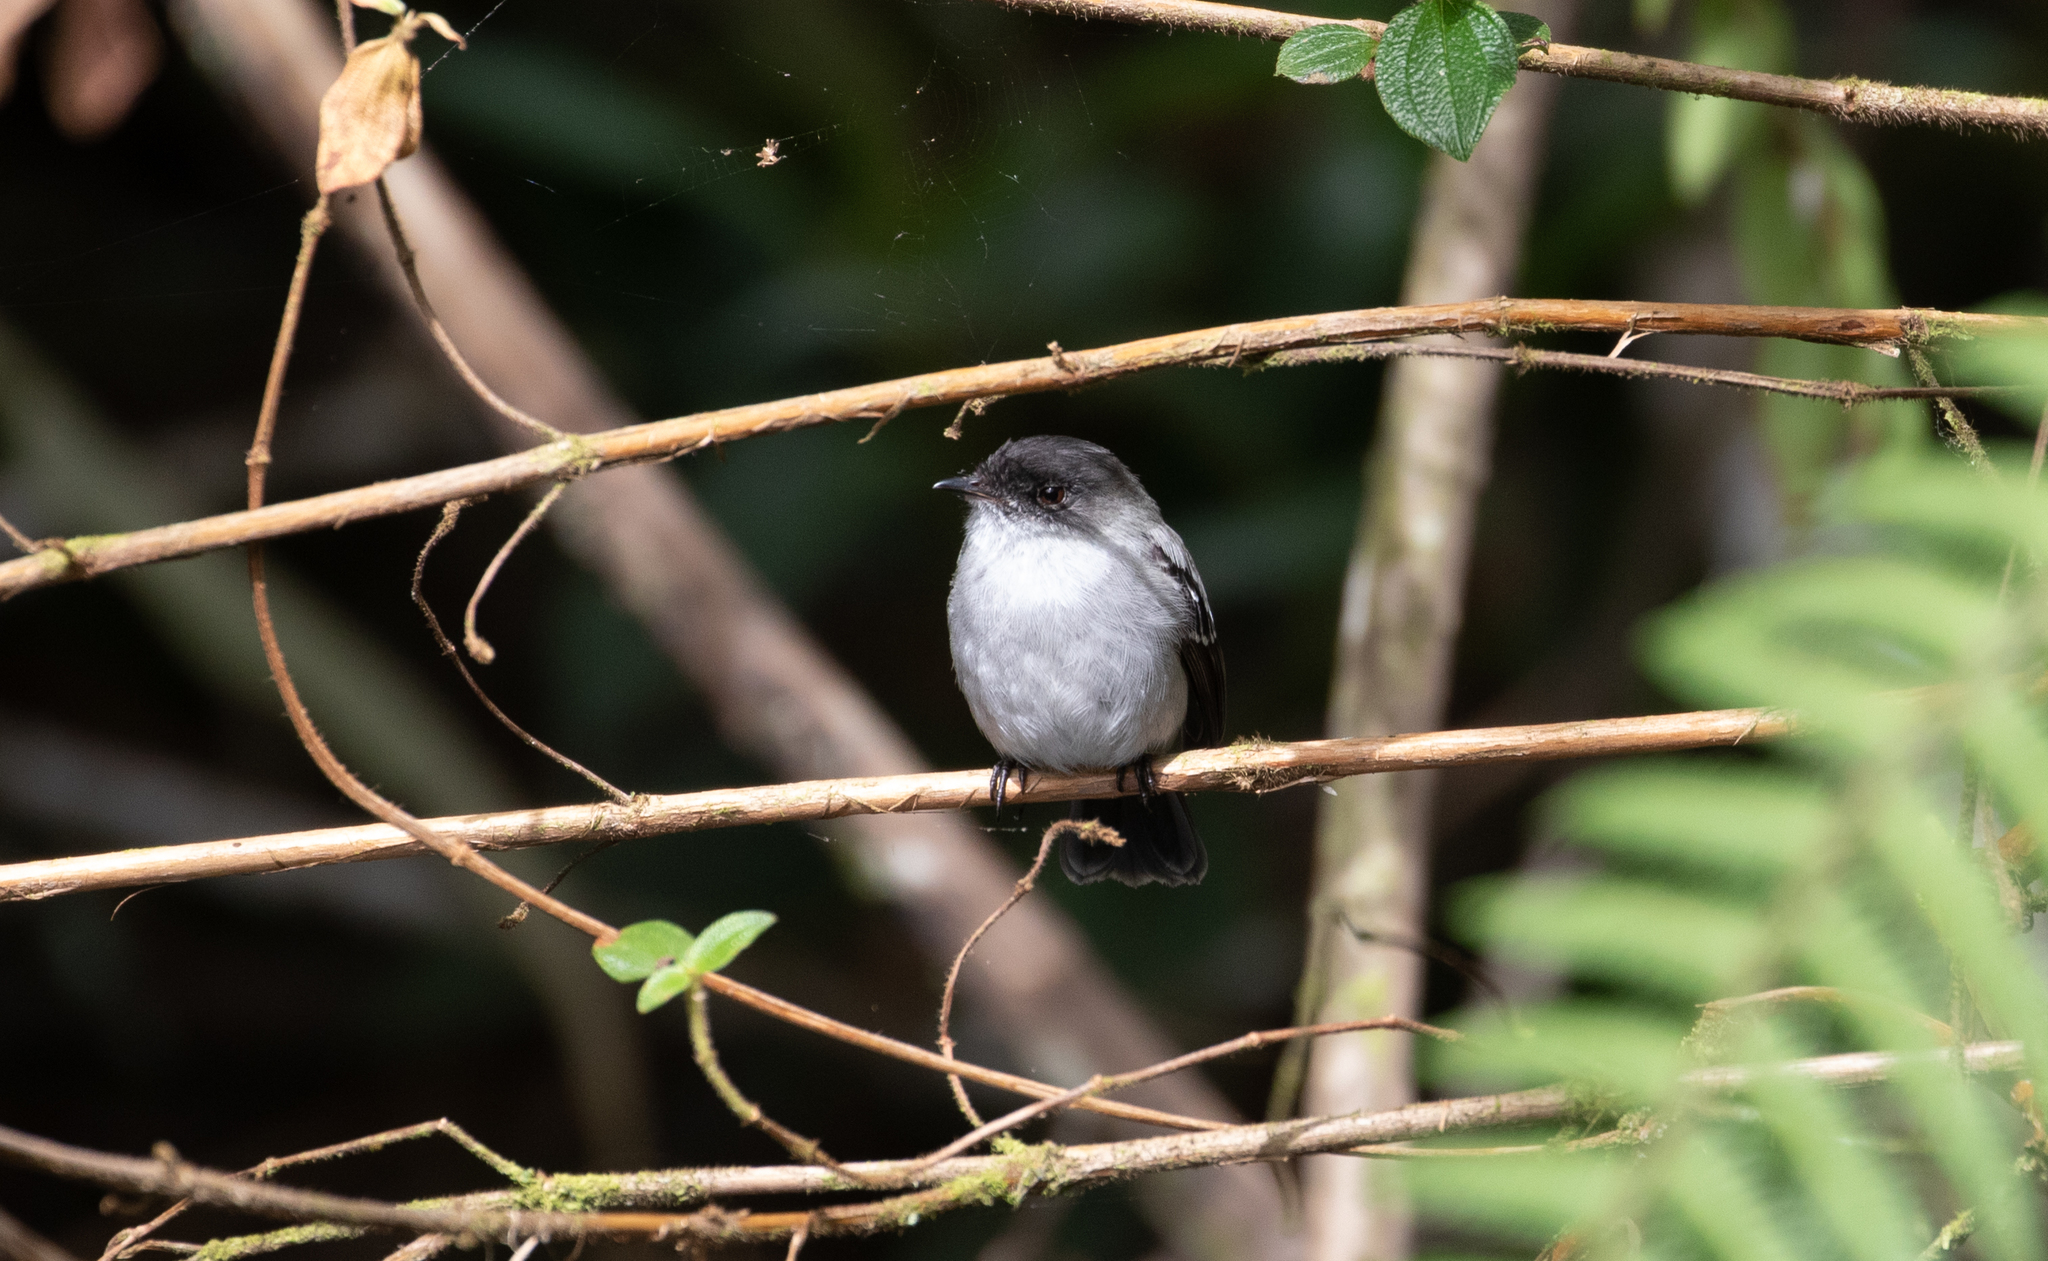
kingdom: Animalia
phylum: Chordata
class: Aves
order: Passeriformes
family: Tyrannidae
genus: Serpophaga
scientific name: Serpophaga cinerea
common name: Torrent tyrannulet
